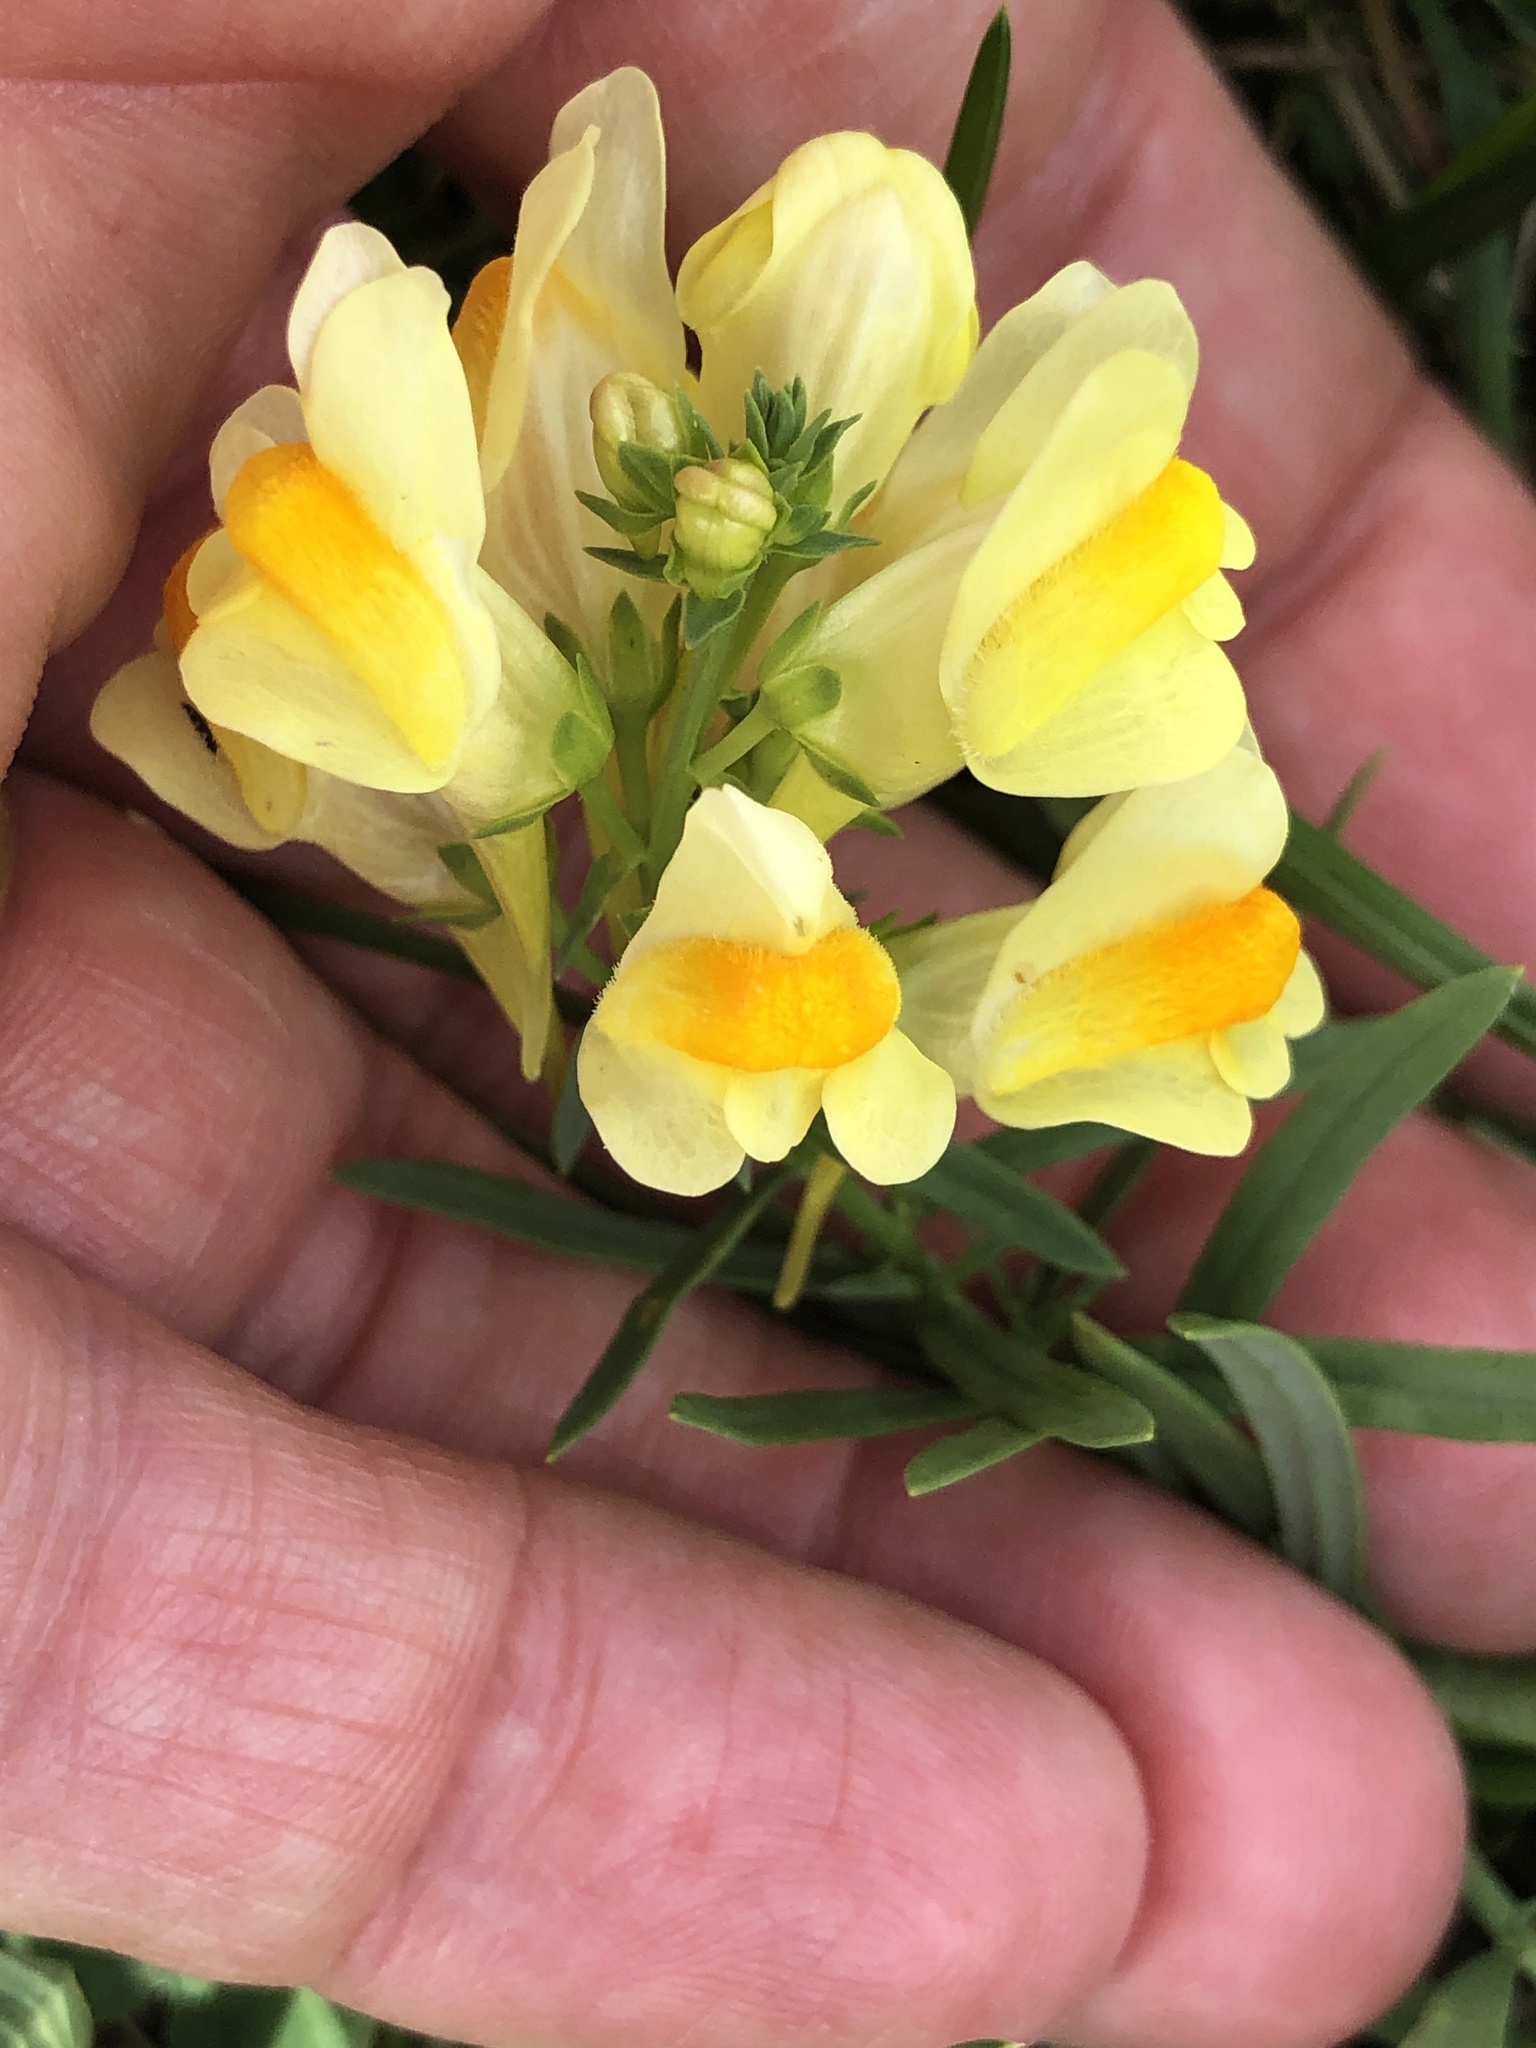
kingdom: Plantae
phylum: Tracheophyta
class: Magnoliopsida
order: Lamiales
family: Plantaginaceae
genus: Linaria
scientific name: Linaria vulgaris
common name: Butter and eggs
